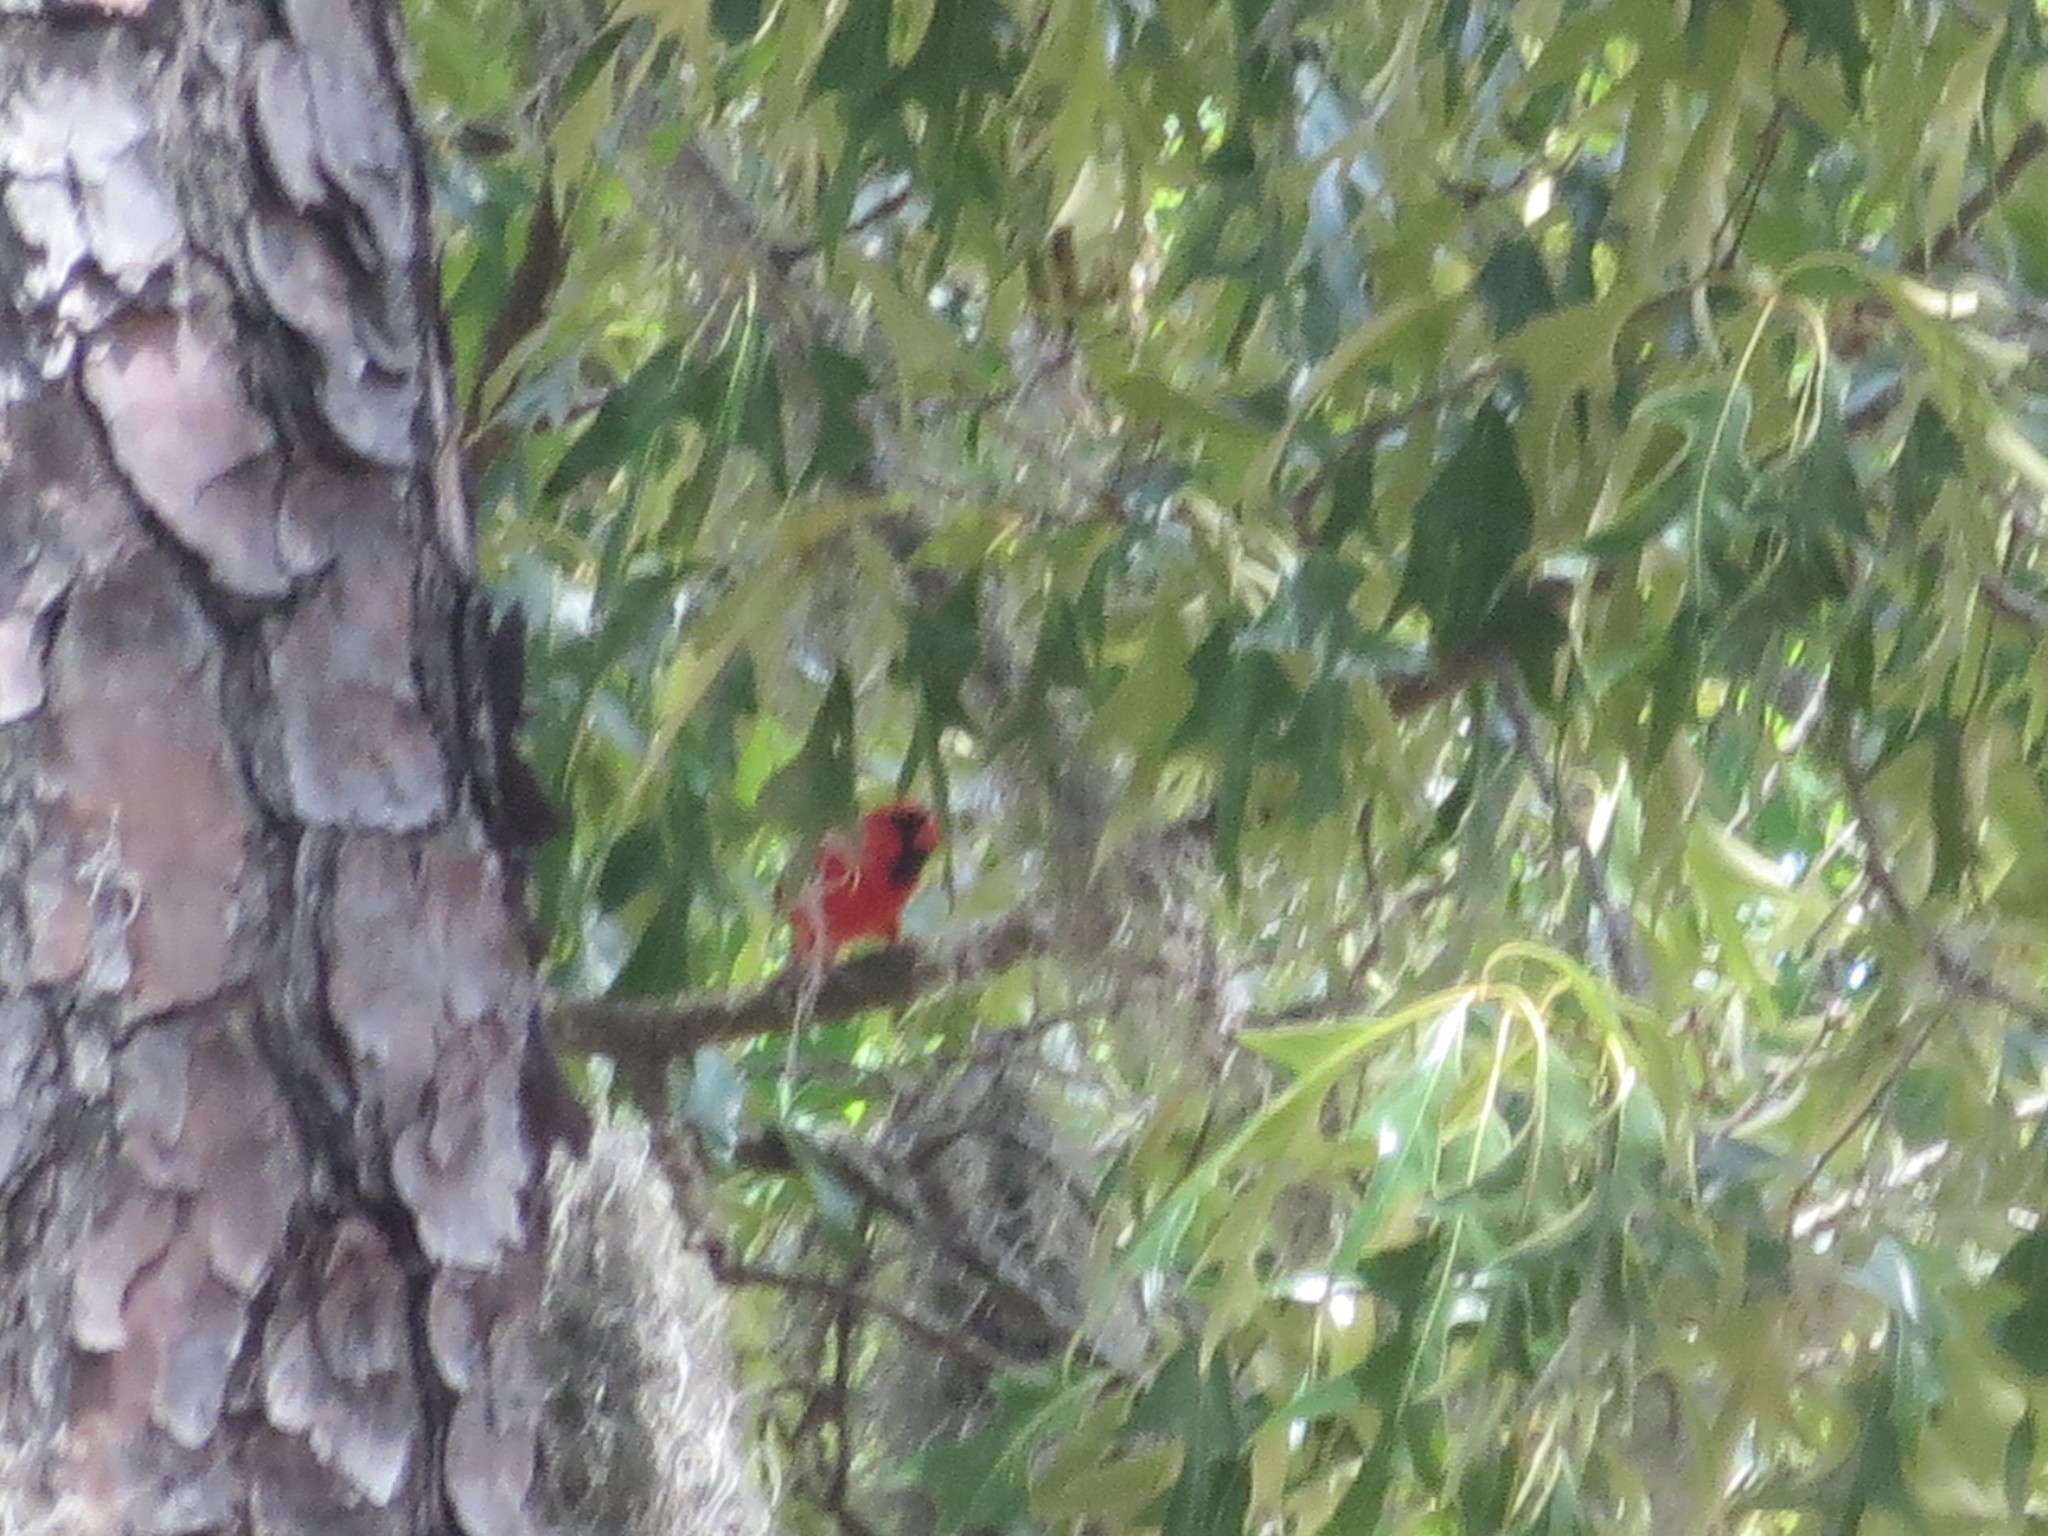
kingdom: Animalia
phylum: Chordata
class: Aves
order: Passeriformes
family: Cardinalidae
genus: Cardinalis
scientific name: Cardinalis cardinalis
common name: Northern cardinal
